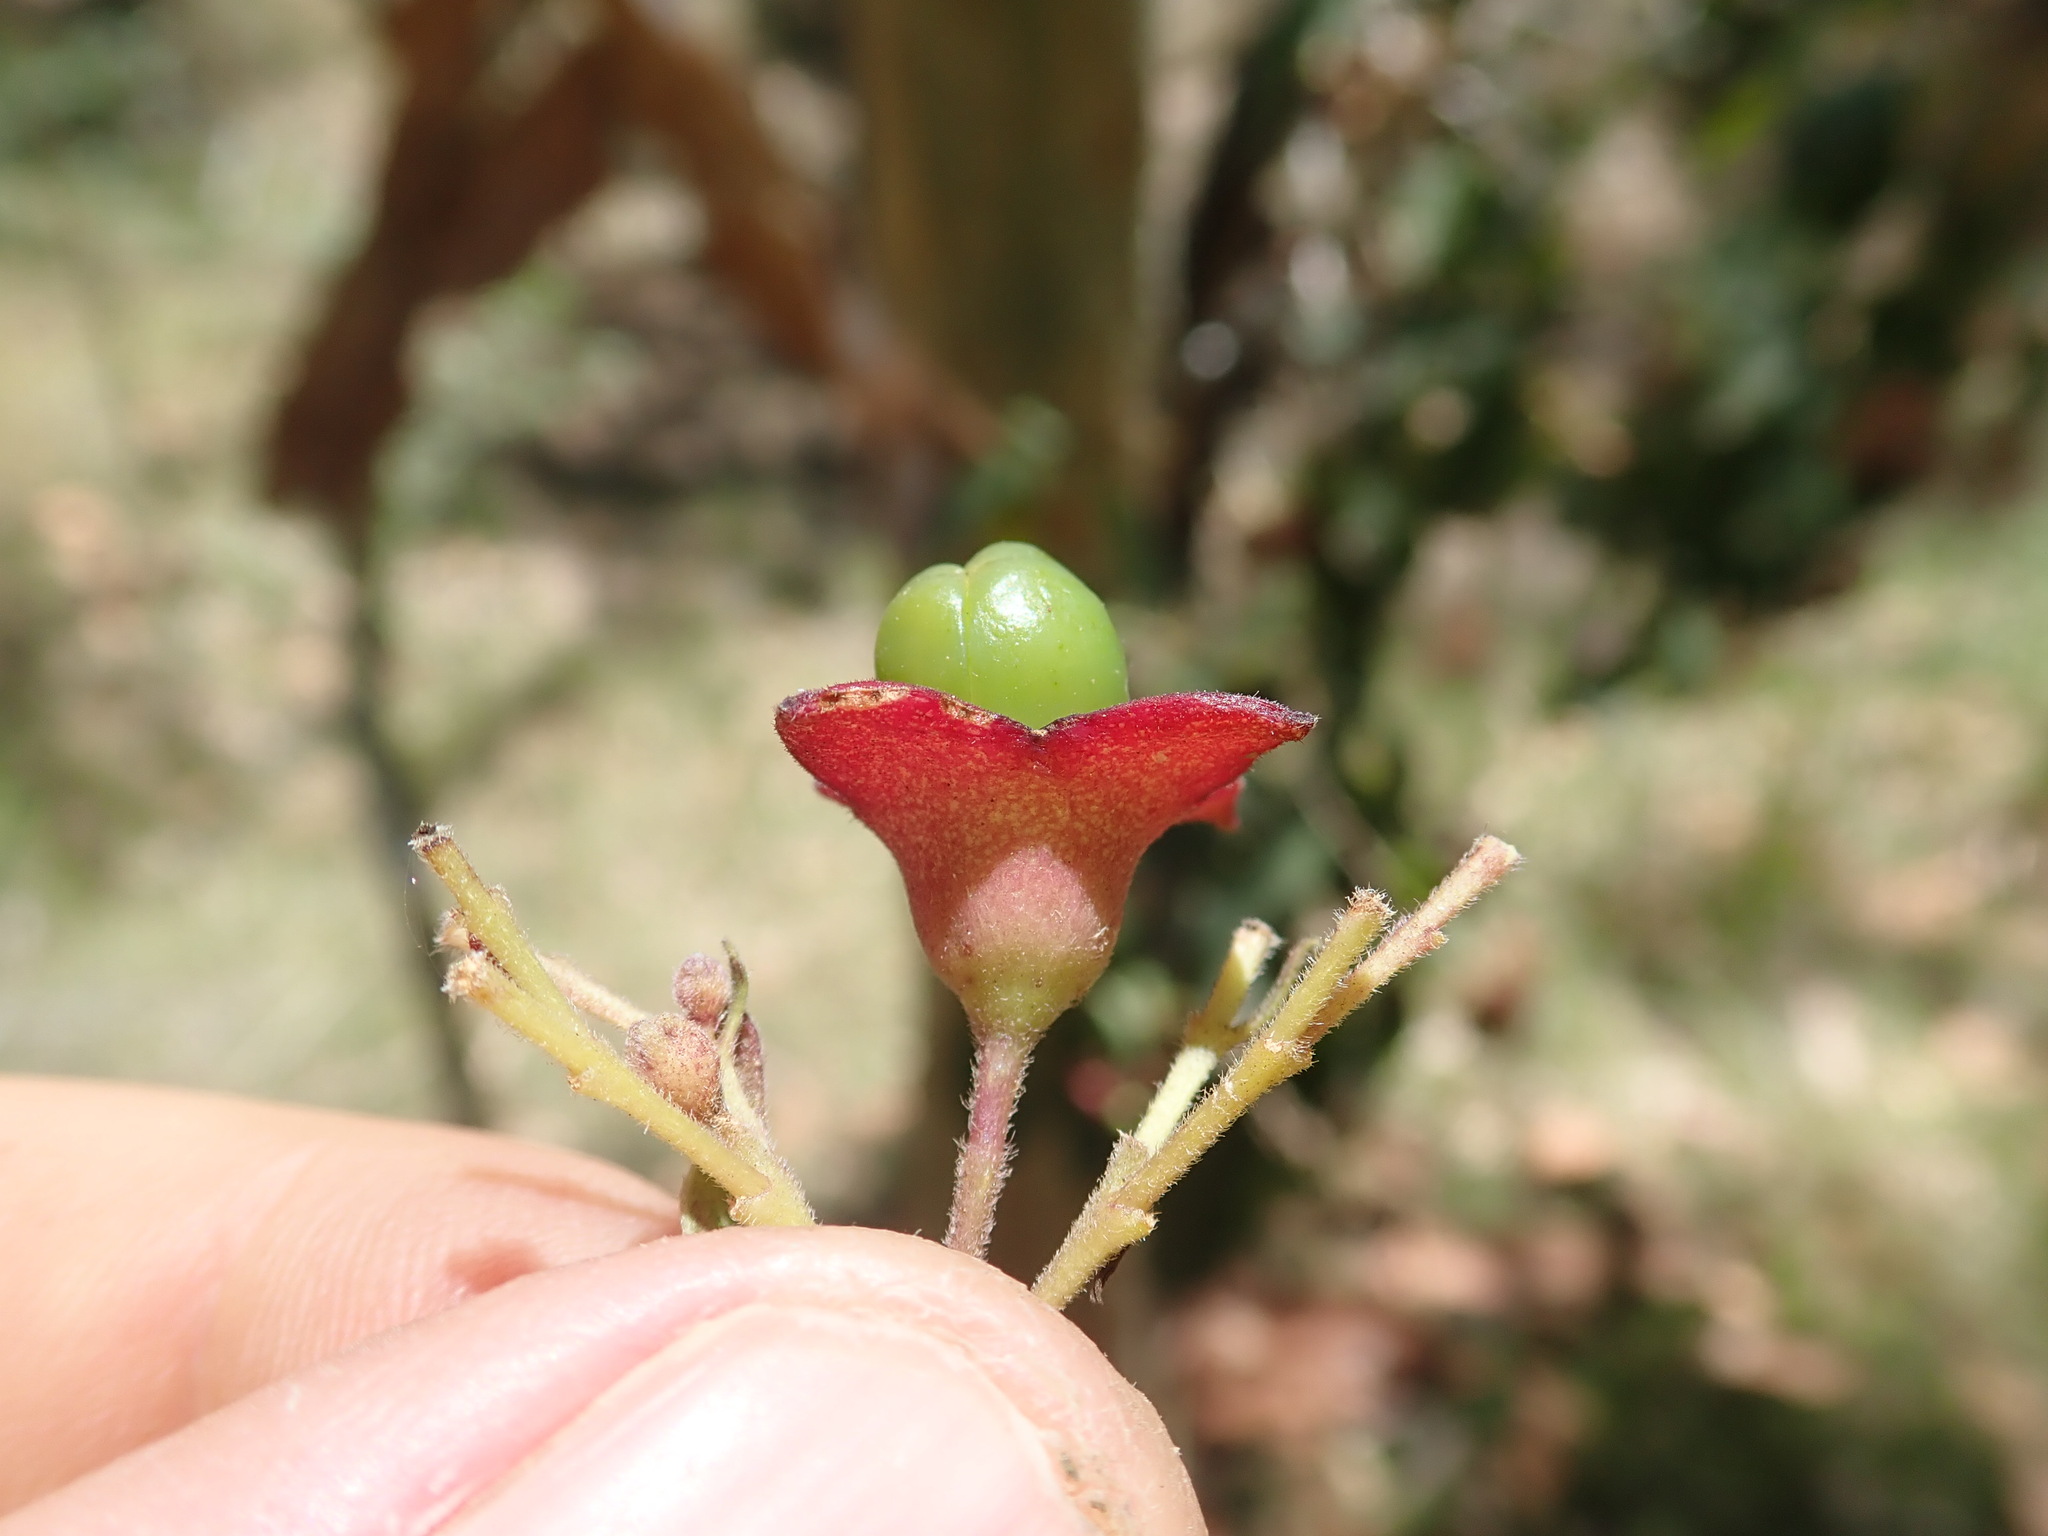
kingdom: Plantae
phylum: Tracheophyta
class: Magnoliopsida
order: Lamiales
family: Lamiaceae
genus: Clerodendrum
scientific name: Clerodendrum tomentosum
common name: Hairy clerodendrum
